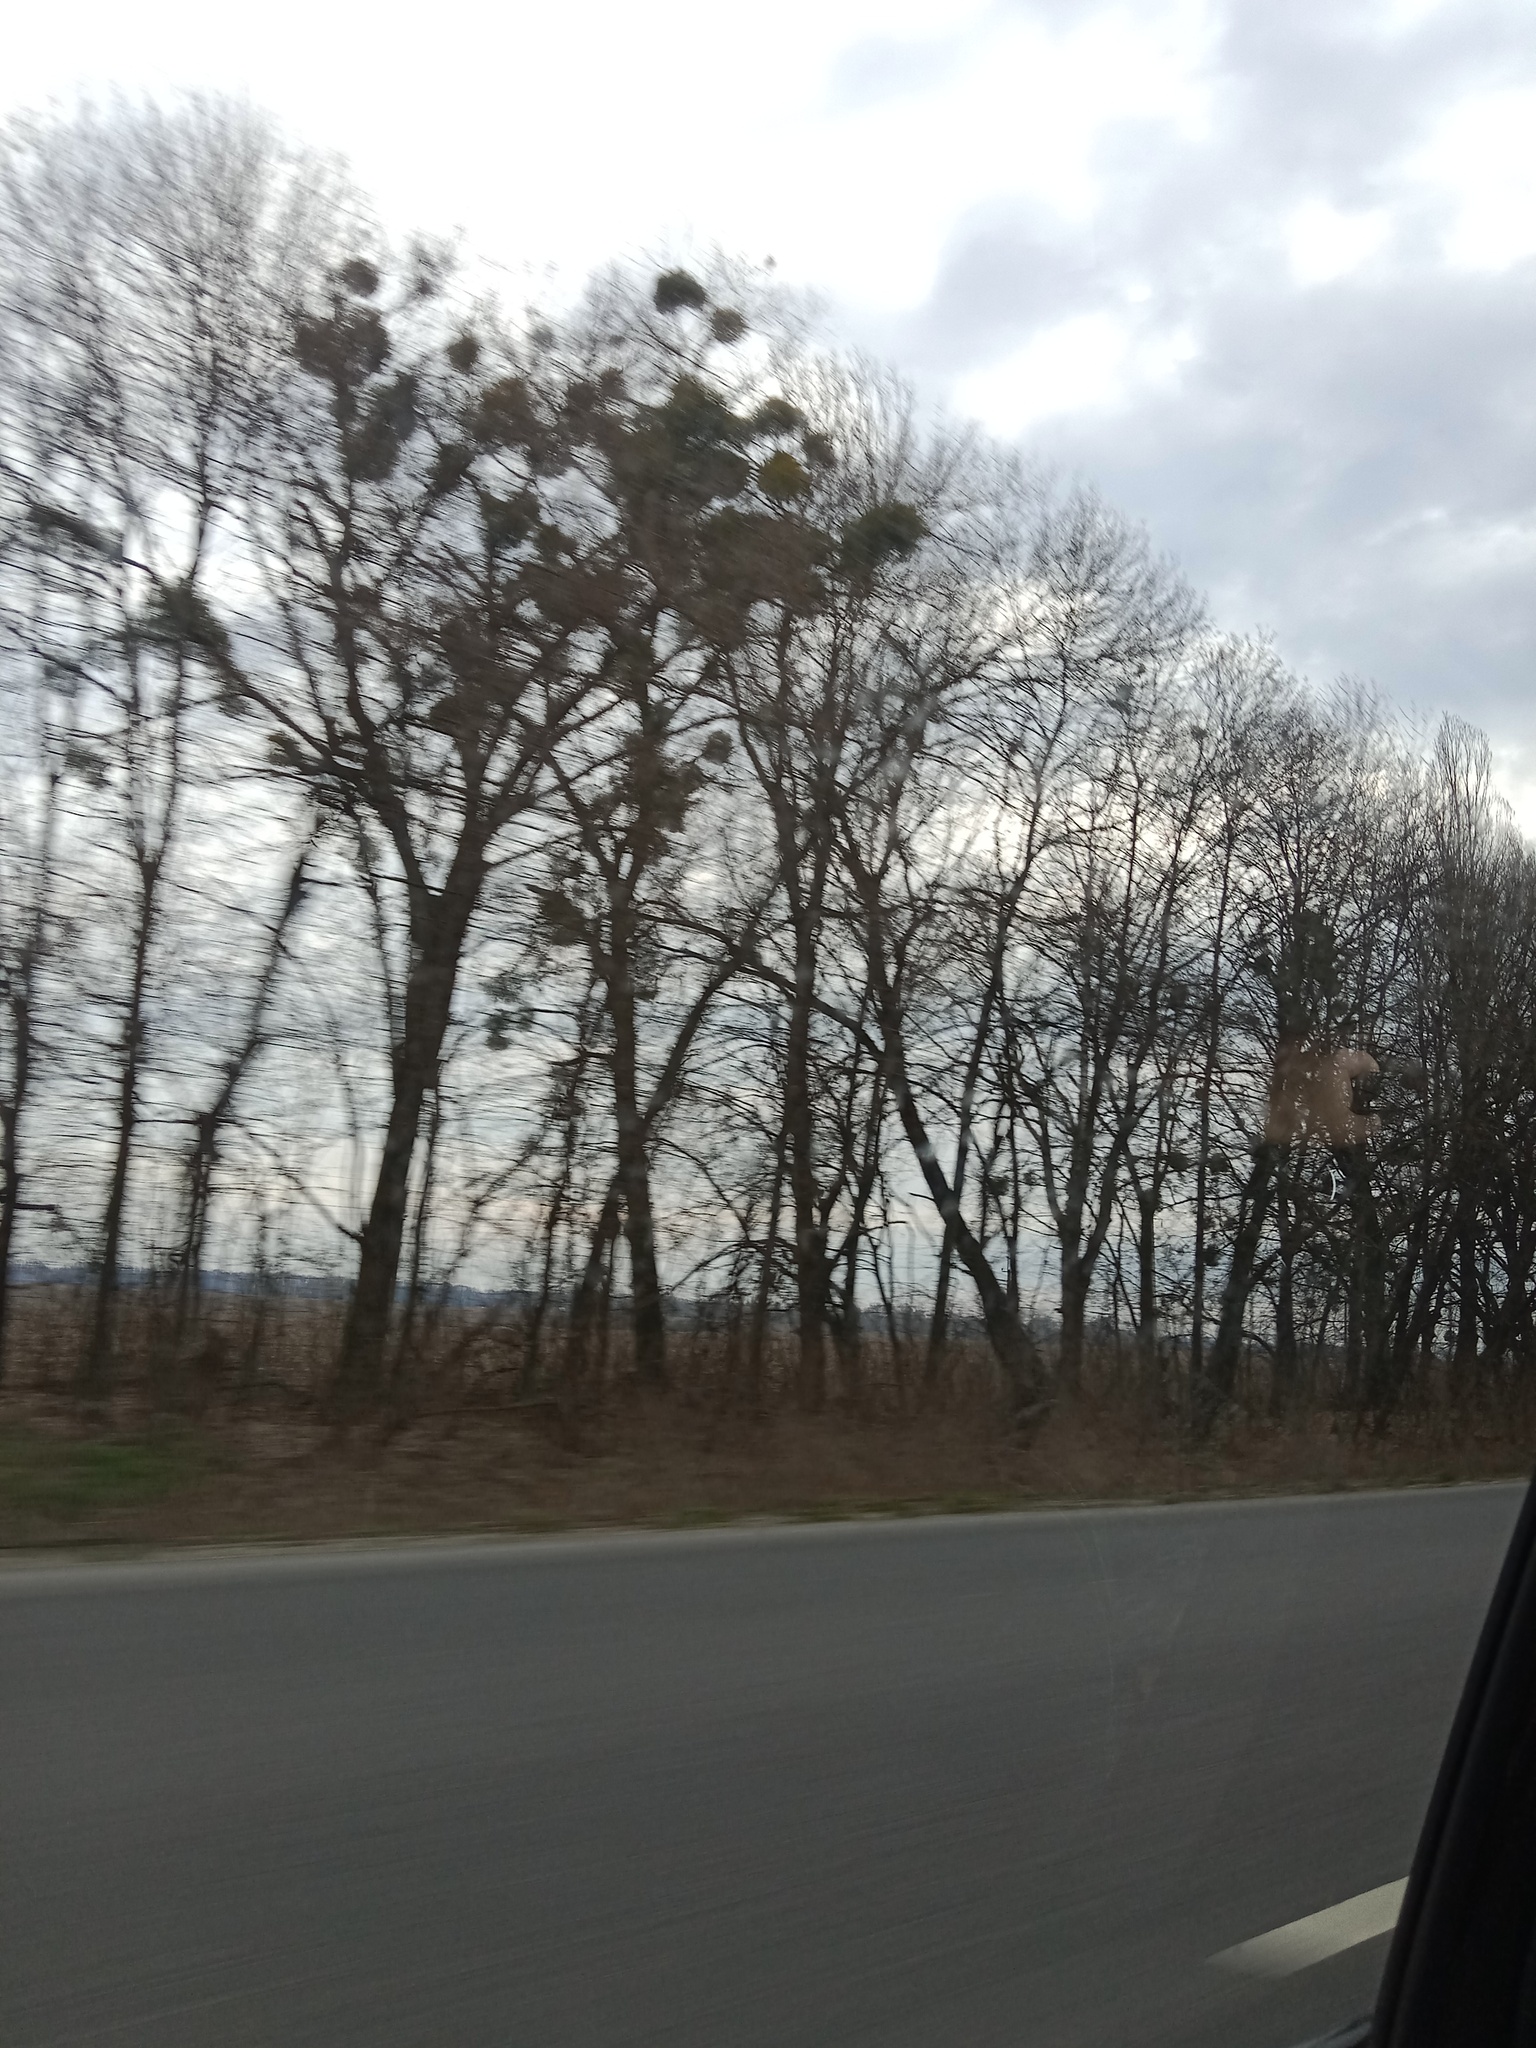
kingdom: Plantae
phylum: Tracheophyta
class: Magnoliopsida
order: Santalales
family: Viscaceae
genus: Viscum
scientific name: Viscum album
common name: Mistletoe
